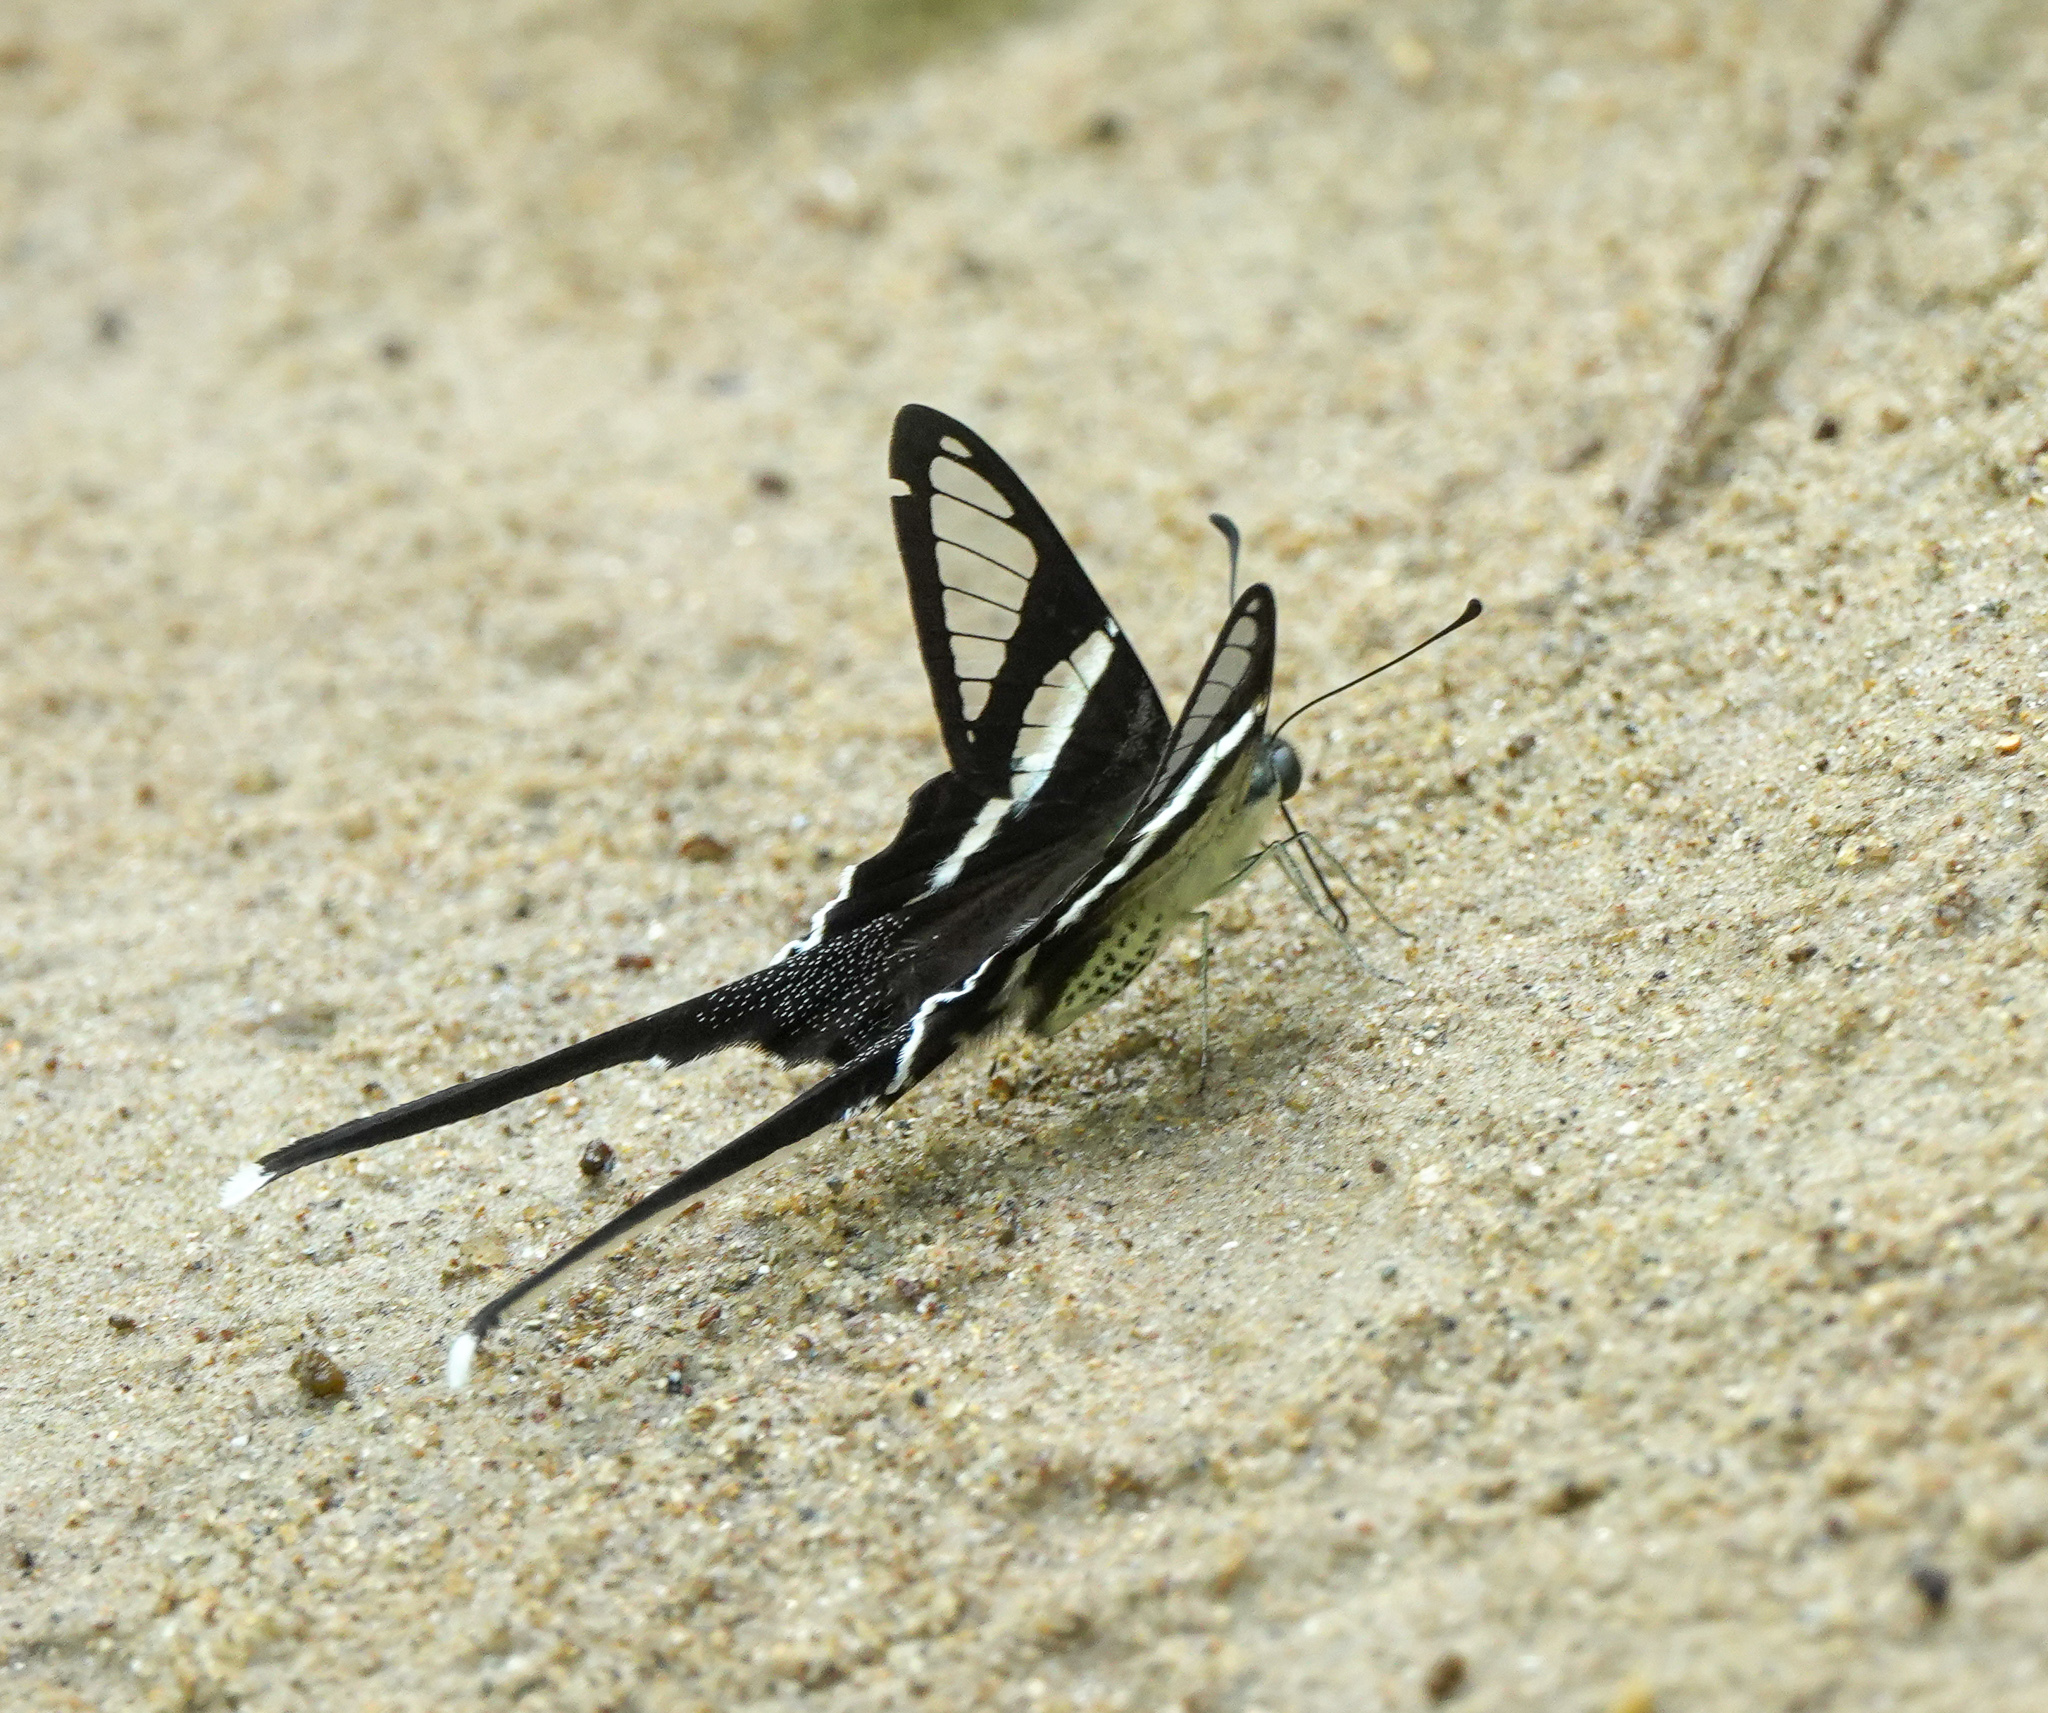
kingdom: Animalia
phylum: Arthropoda
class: Insecta
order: Lepidoptera
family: Papilionidae
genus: Lamproptera
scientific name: Lamproptera curius
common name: White dragontail
